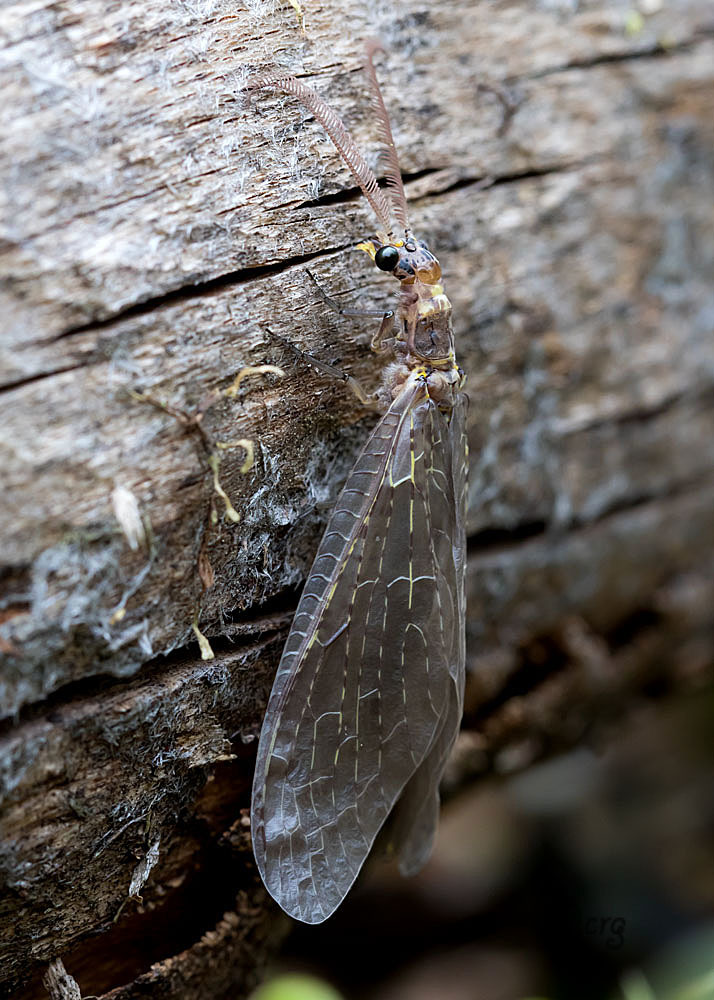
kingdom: Animalia
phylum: Arthropoda
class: Insecta
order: Megaloptera
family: Corydalidae
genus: Chauliodes
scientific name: Chauliodes rastricornis
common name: Spring fishfly
